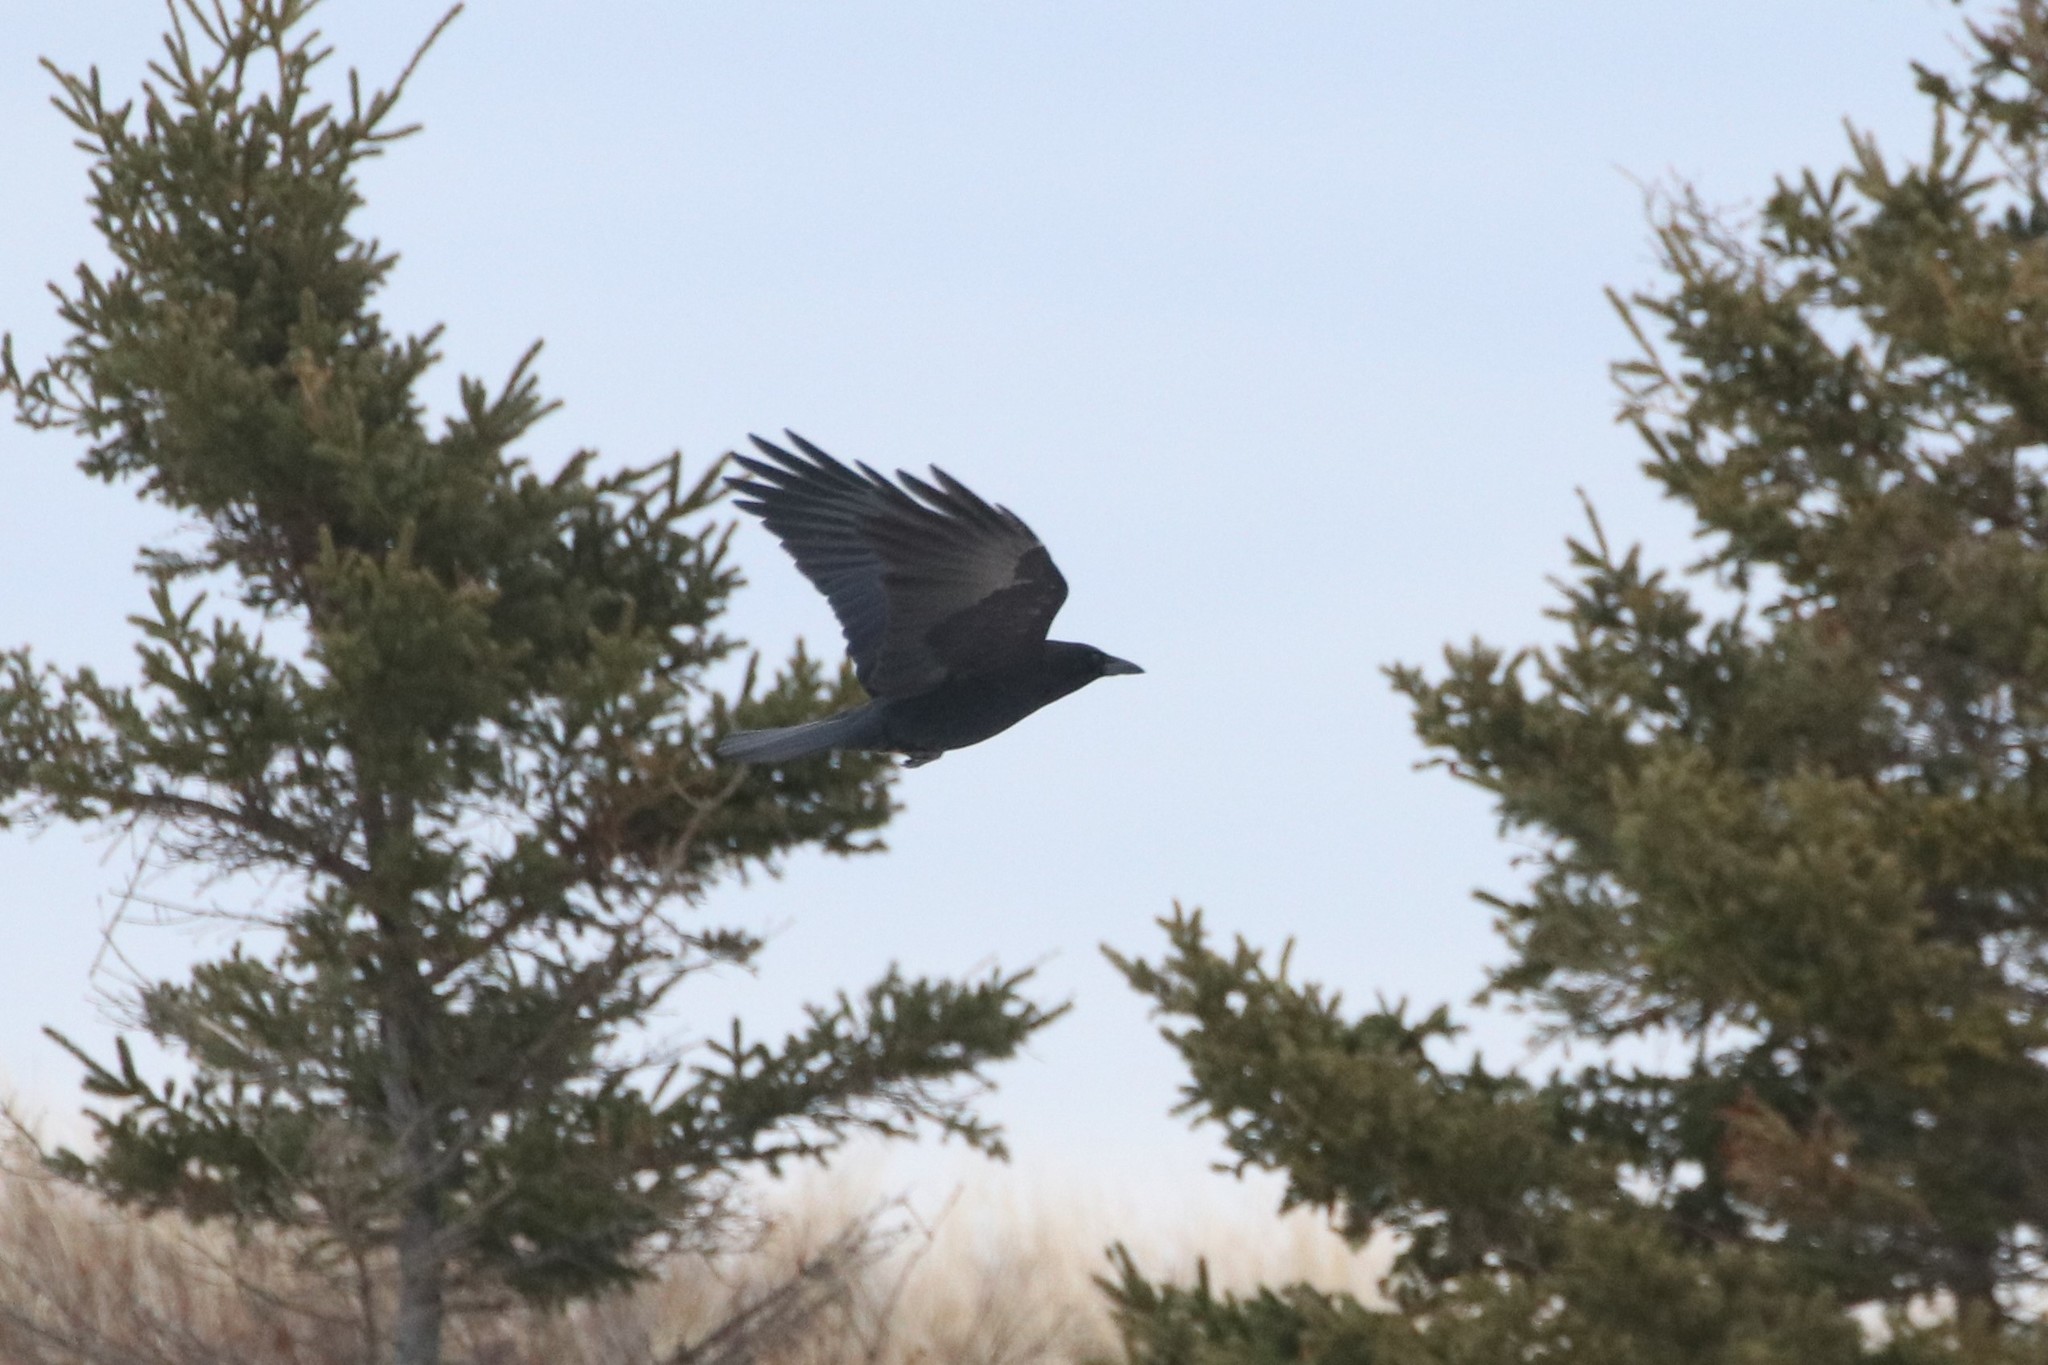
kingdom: Animalia
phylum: Chordata
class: Aves
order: Passeriformes
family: Corvidae
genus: Corvus
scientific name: Corvus brachyrhynchos
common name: American crow
